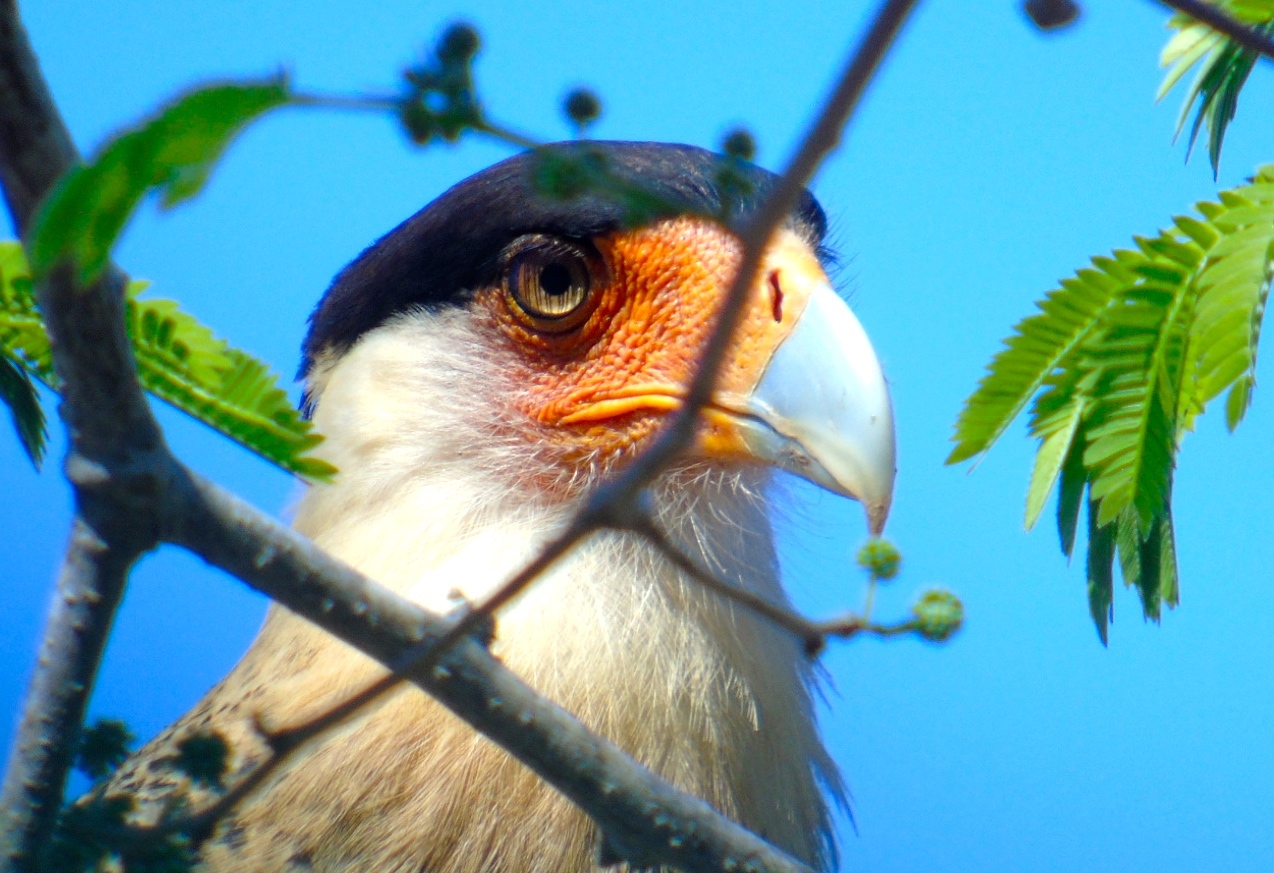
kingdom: Animalia
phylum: Chordata
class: Aves
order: Falconiformes
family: Falconidae
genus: Caracara
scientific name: Caracara plancus
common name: Southern caracara
